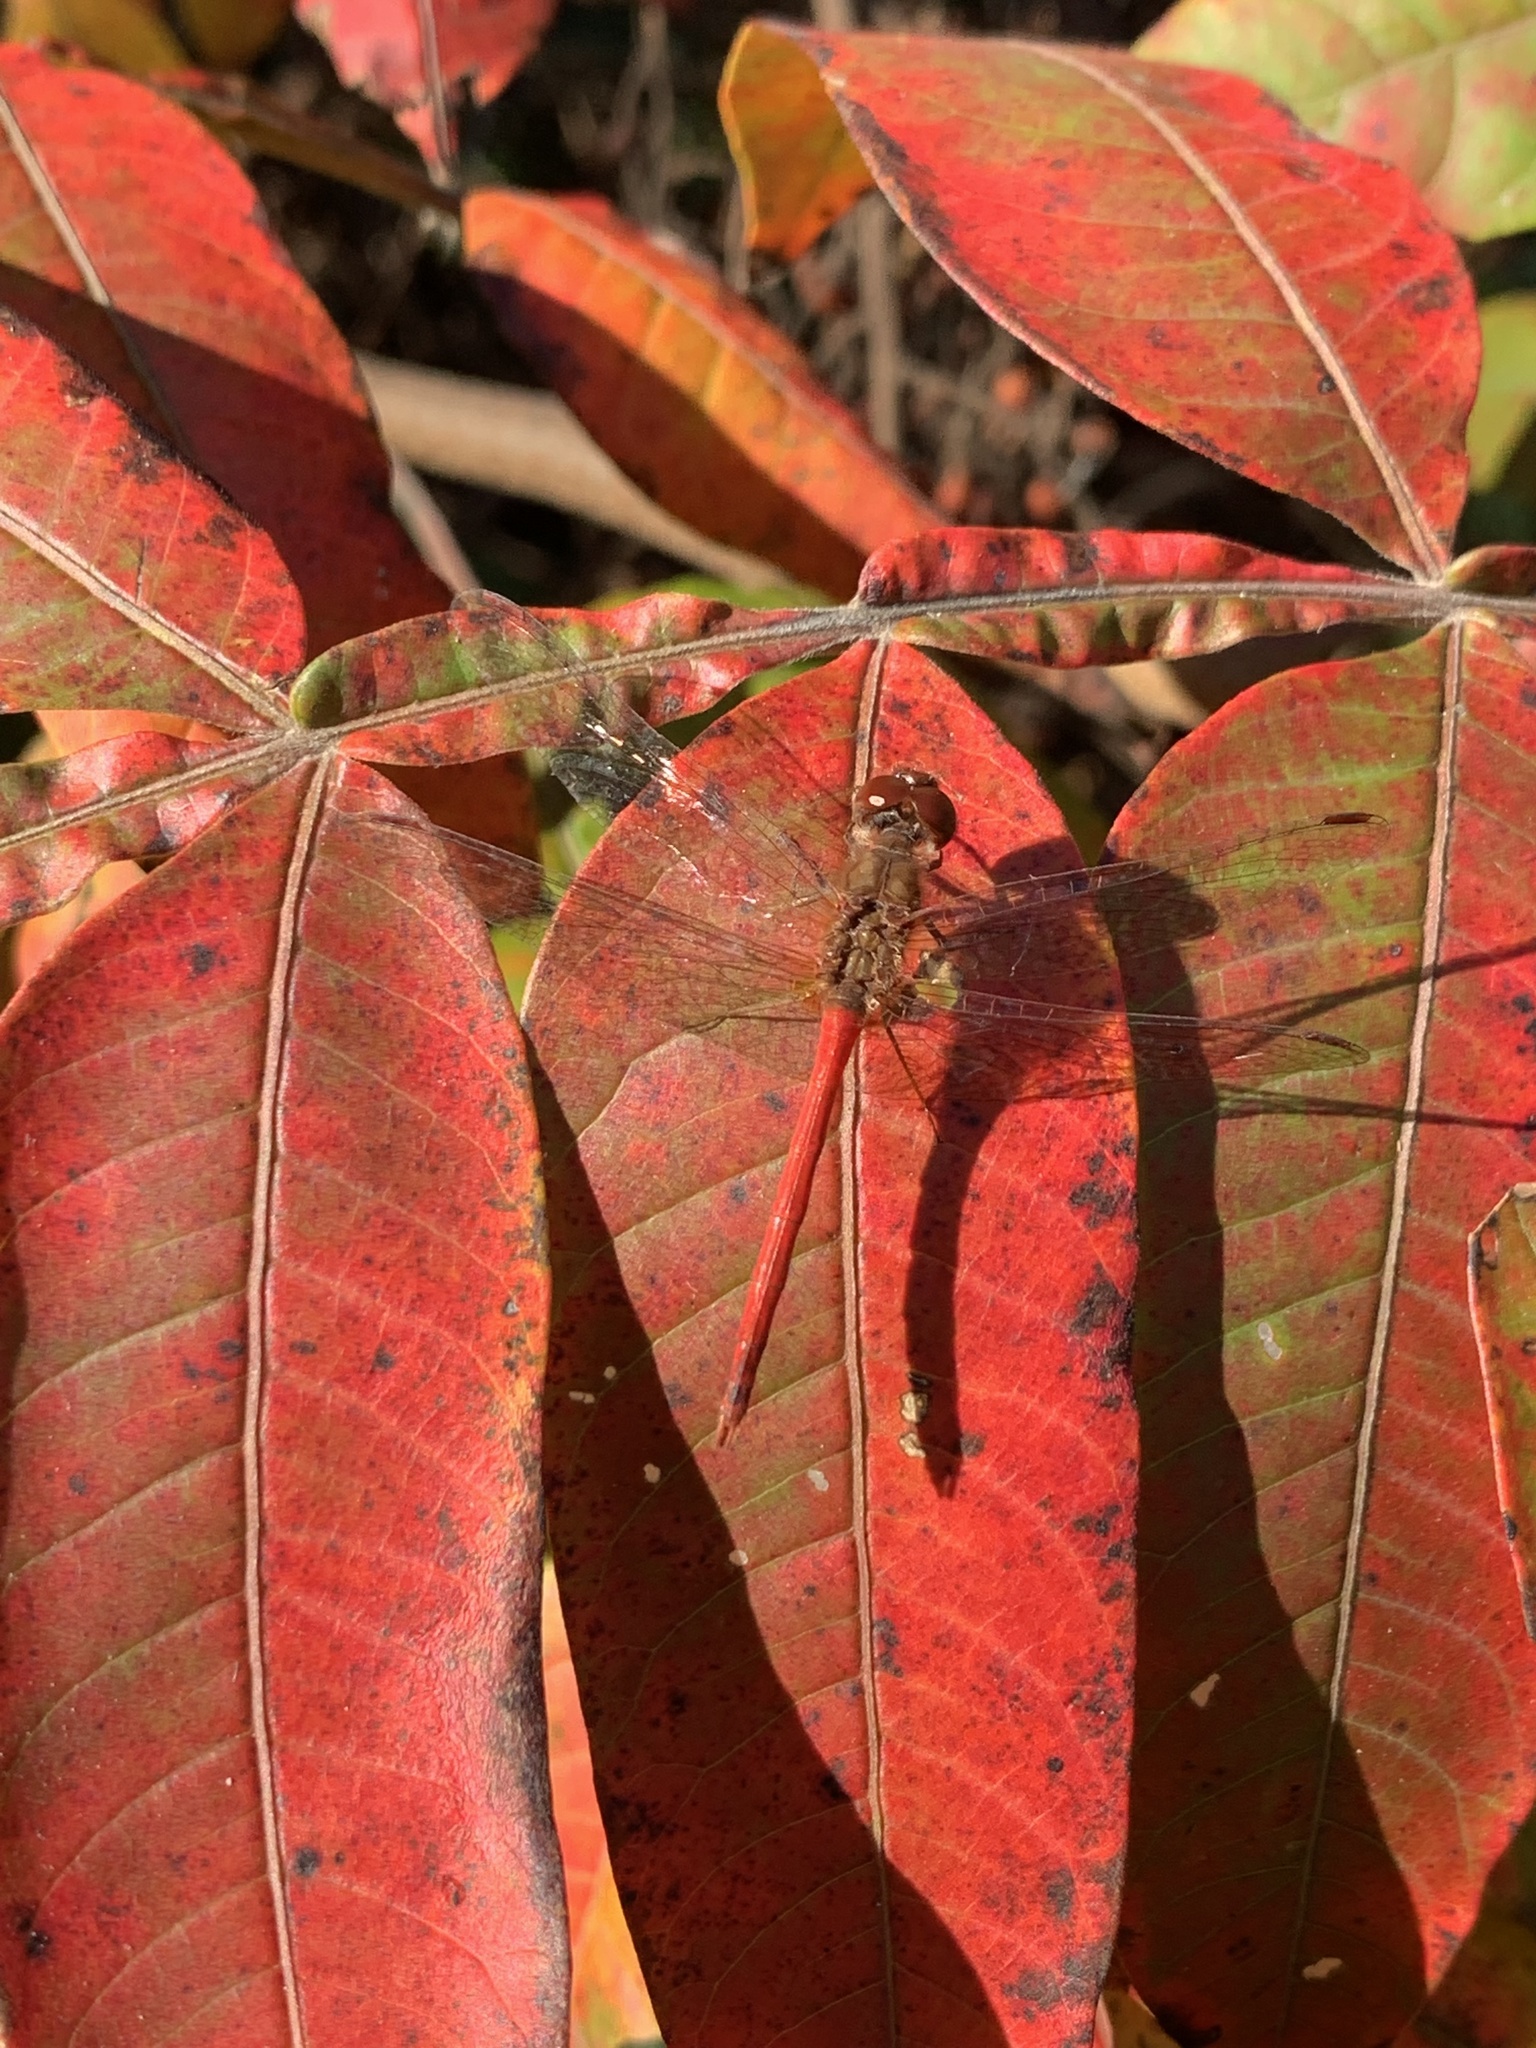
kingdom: Animalia
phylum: Arthropoda
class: Insecta
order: Odonata
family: Libellulidae
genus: Sympetrum
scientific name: Sympetrum vicinum
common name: Autumn meadowhawk
